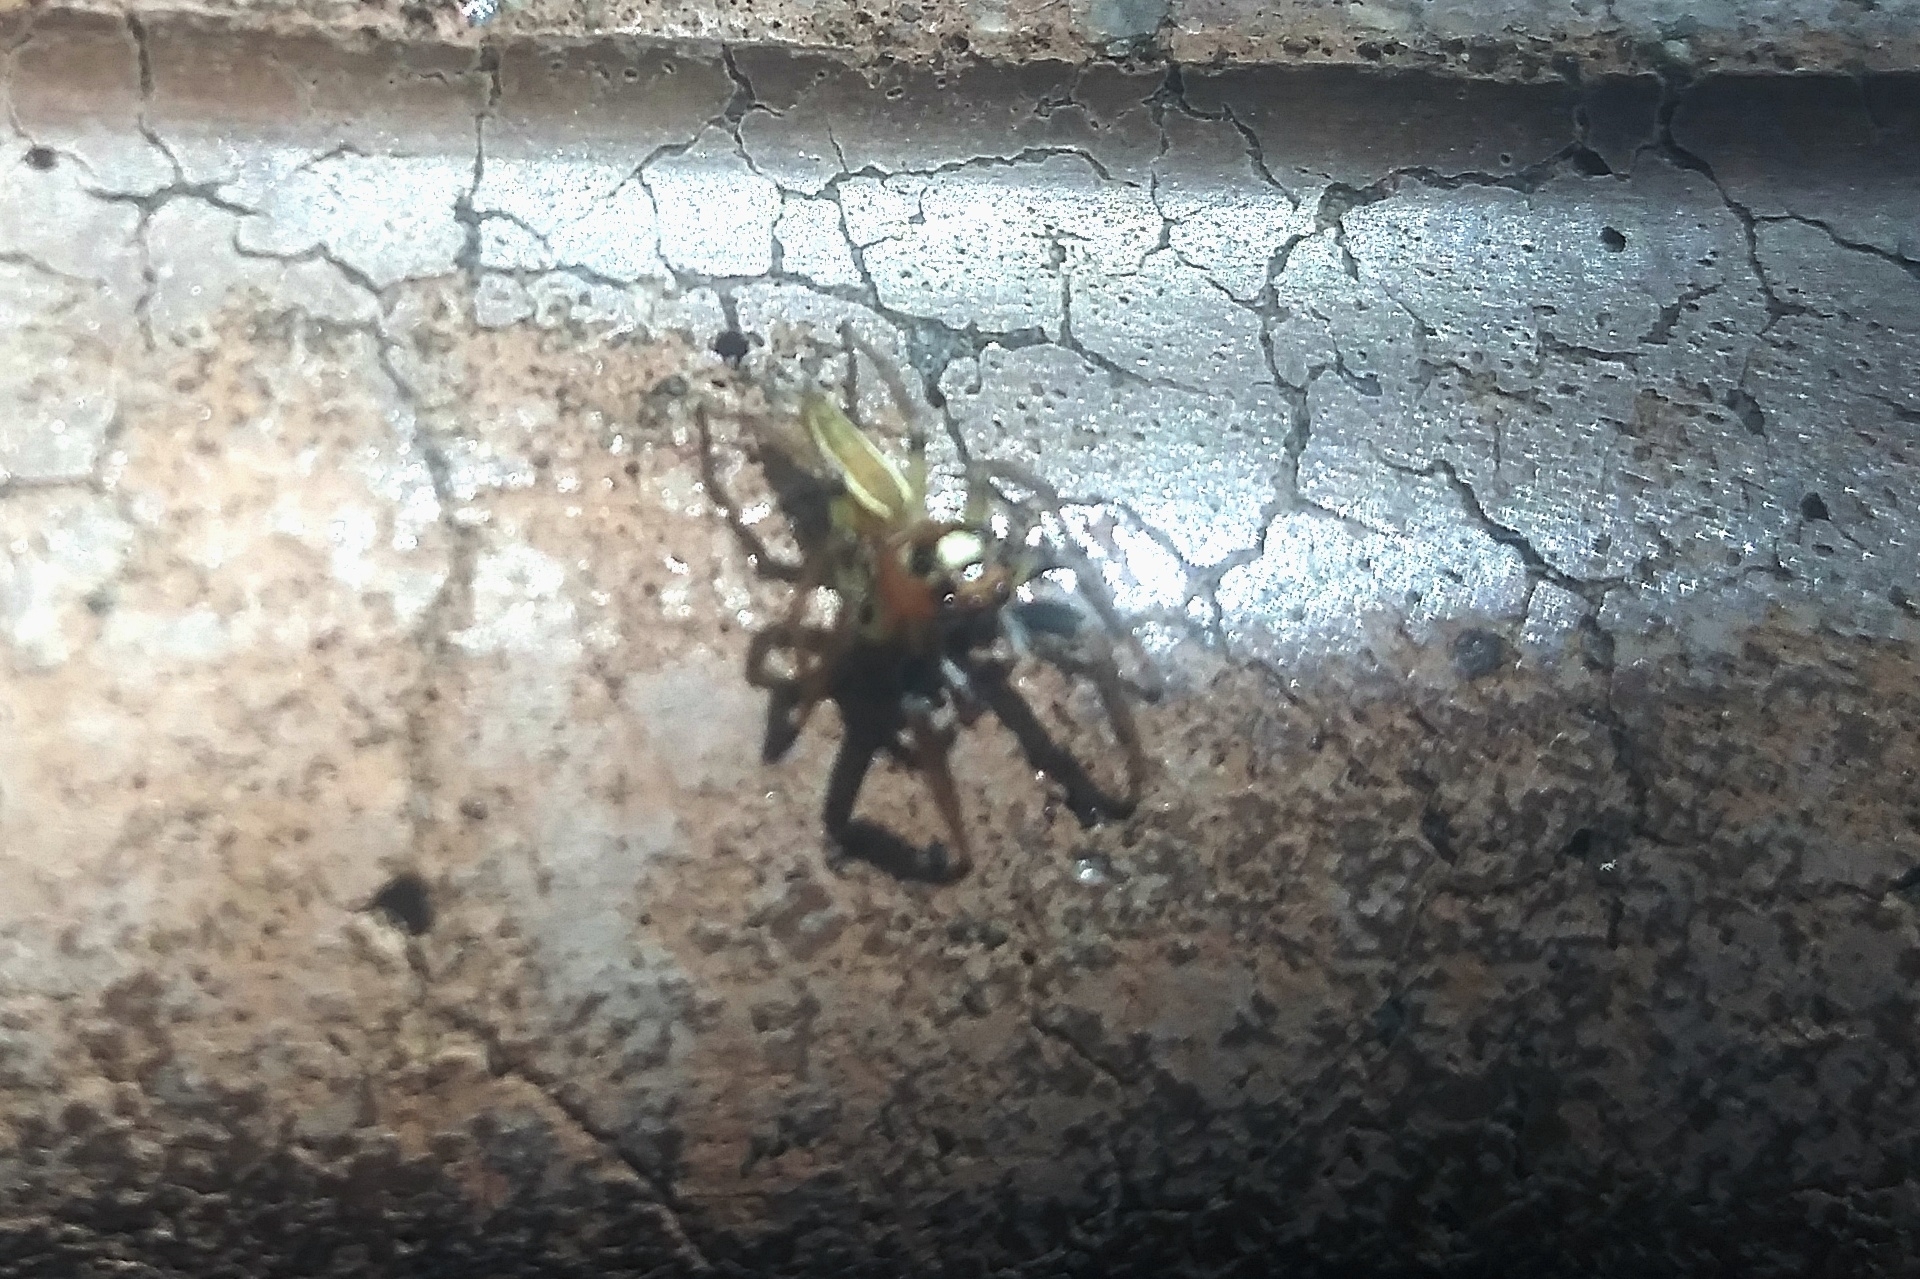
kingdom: Animalia
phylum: Arthropoda
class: Arachnida
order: Araneae
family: Salticidae
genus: Colonus
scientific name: Colonus sylvanus
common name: Jumping spiders
